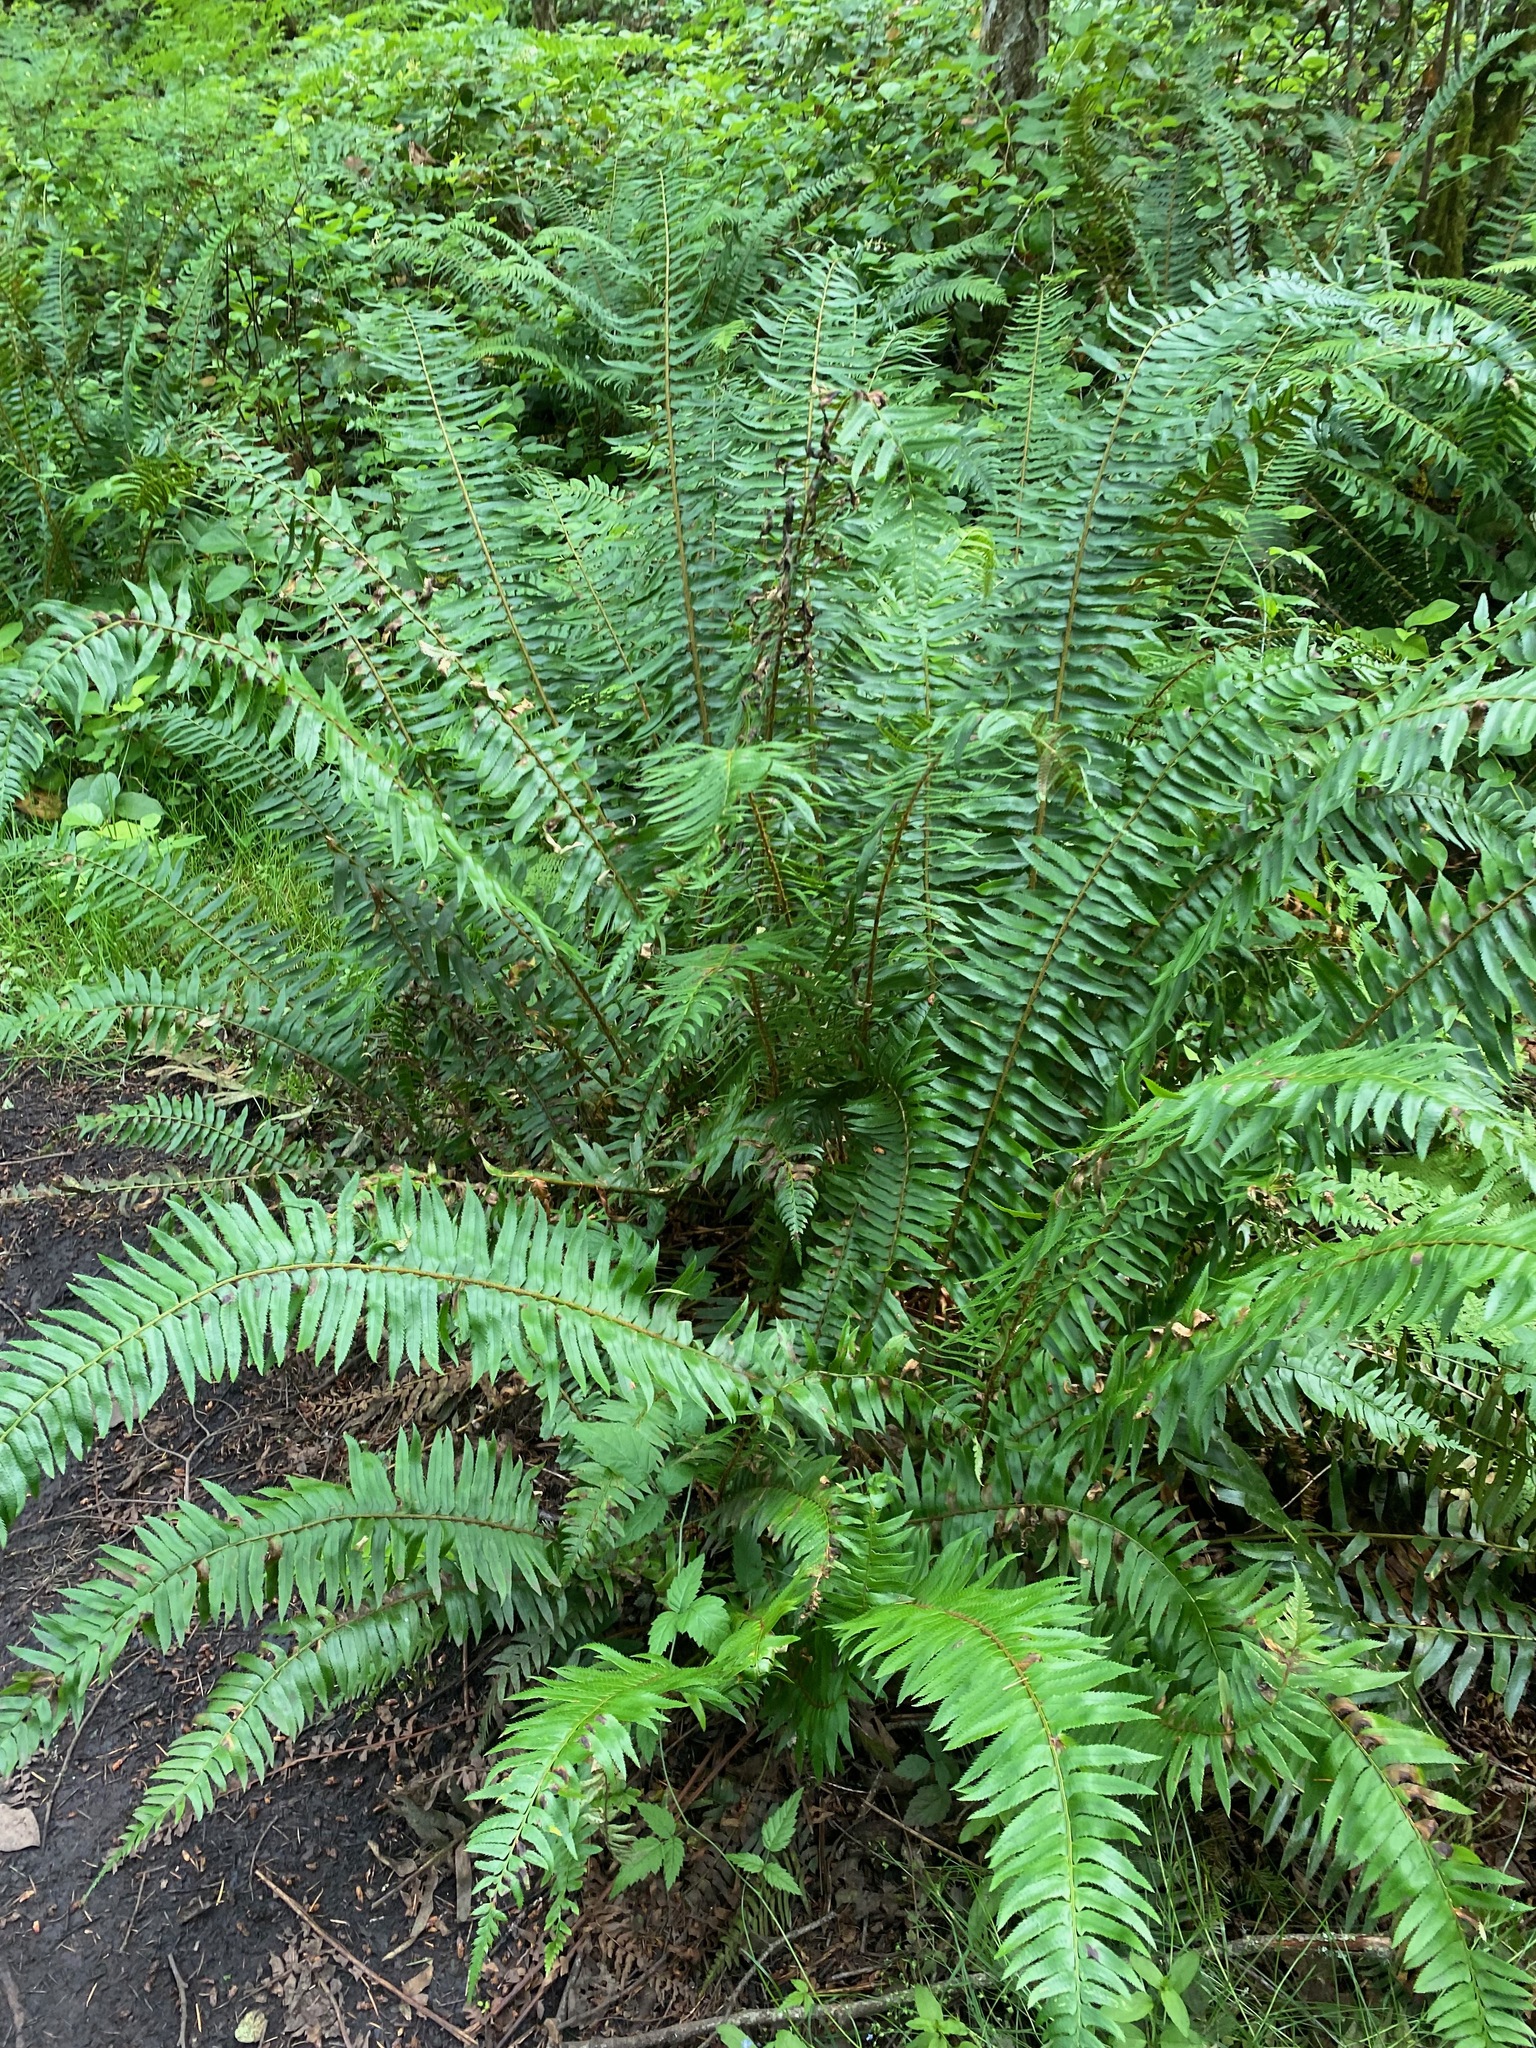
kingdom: Plantae
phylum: Tracheophyta
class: Polypodiopsida
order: Polypodiales
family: Dryopteridaceae
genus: Polystichum
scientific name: Polystichum munitum
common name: Western sword-fern
